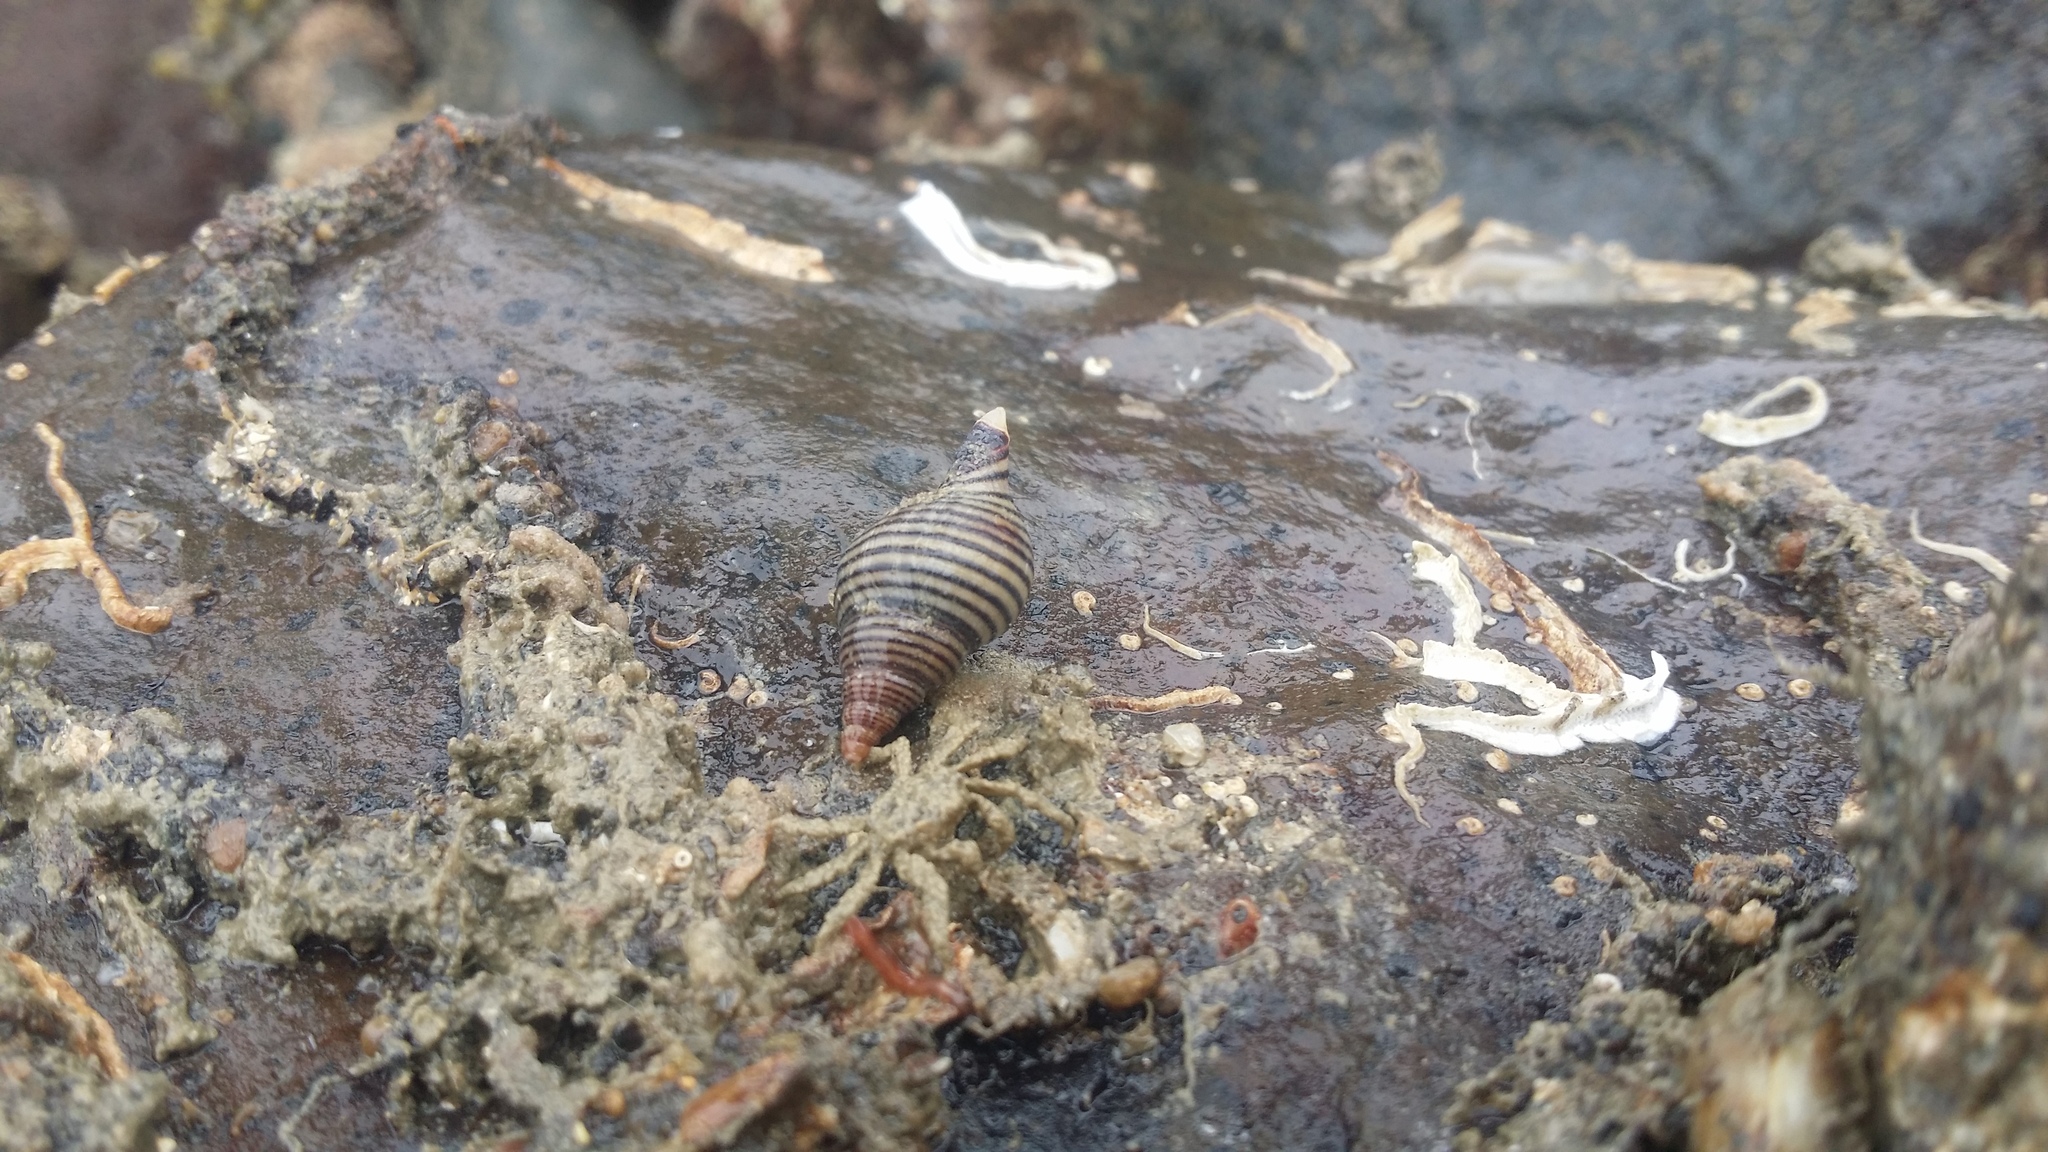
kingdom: Animalia
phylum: Mollusca
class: Gastropoda
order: Neogastropoda
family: Tudiclidae
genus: Buccinulum
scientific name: Buccinulum linea
